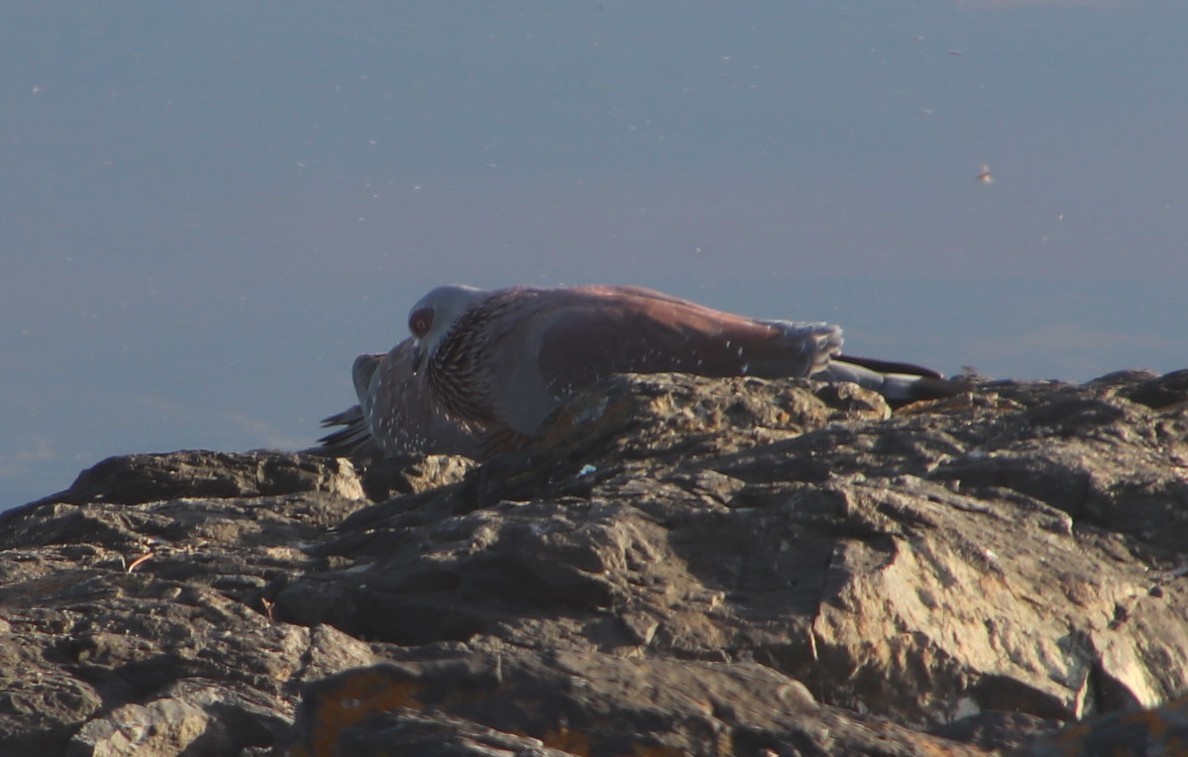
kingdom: Animalia
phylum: Chordata
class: Aves
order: Columbiformes
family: Columbidae
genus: Columba
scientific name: Columba guinea
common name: Speckled pigeon
